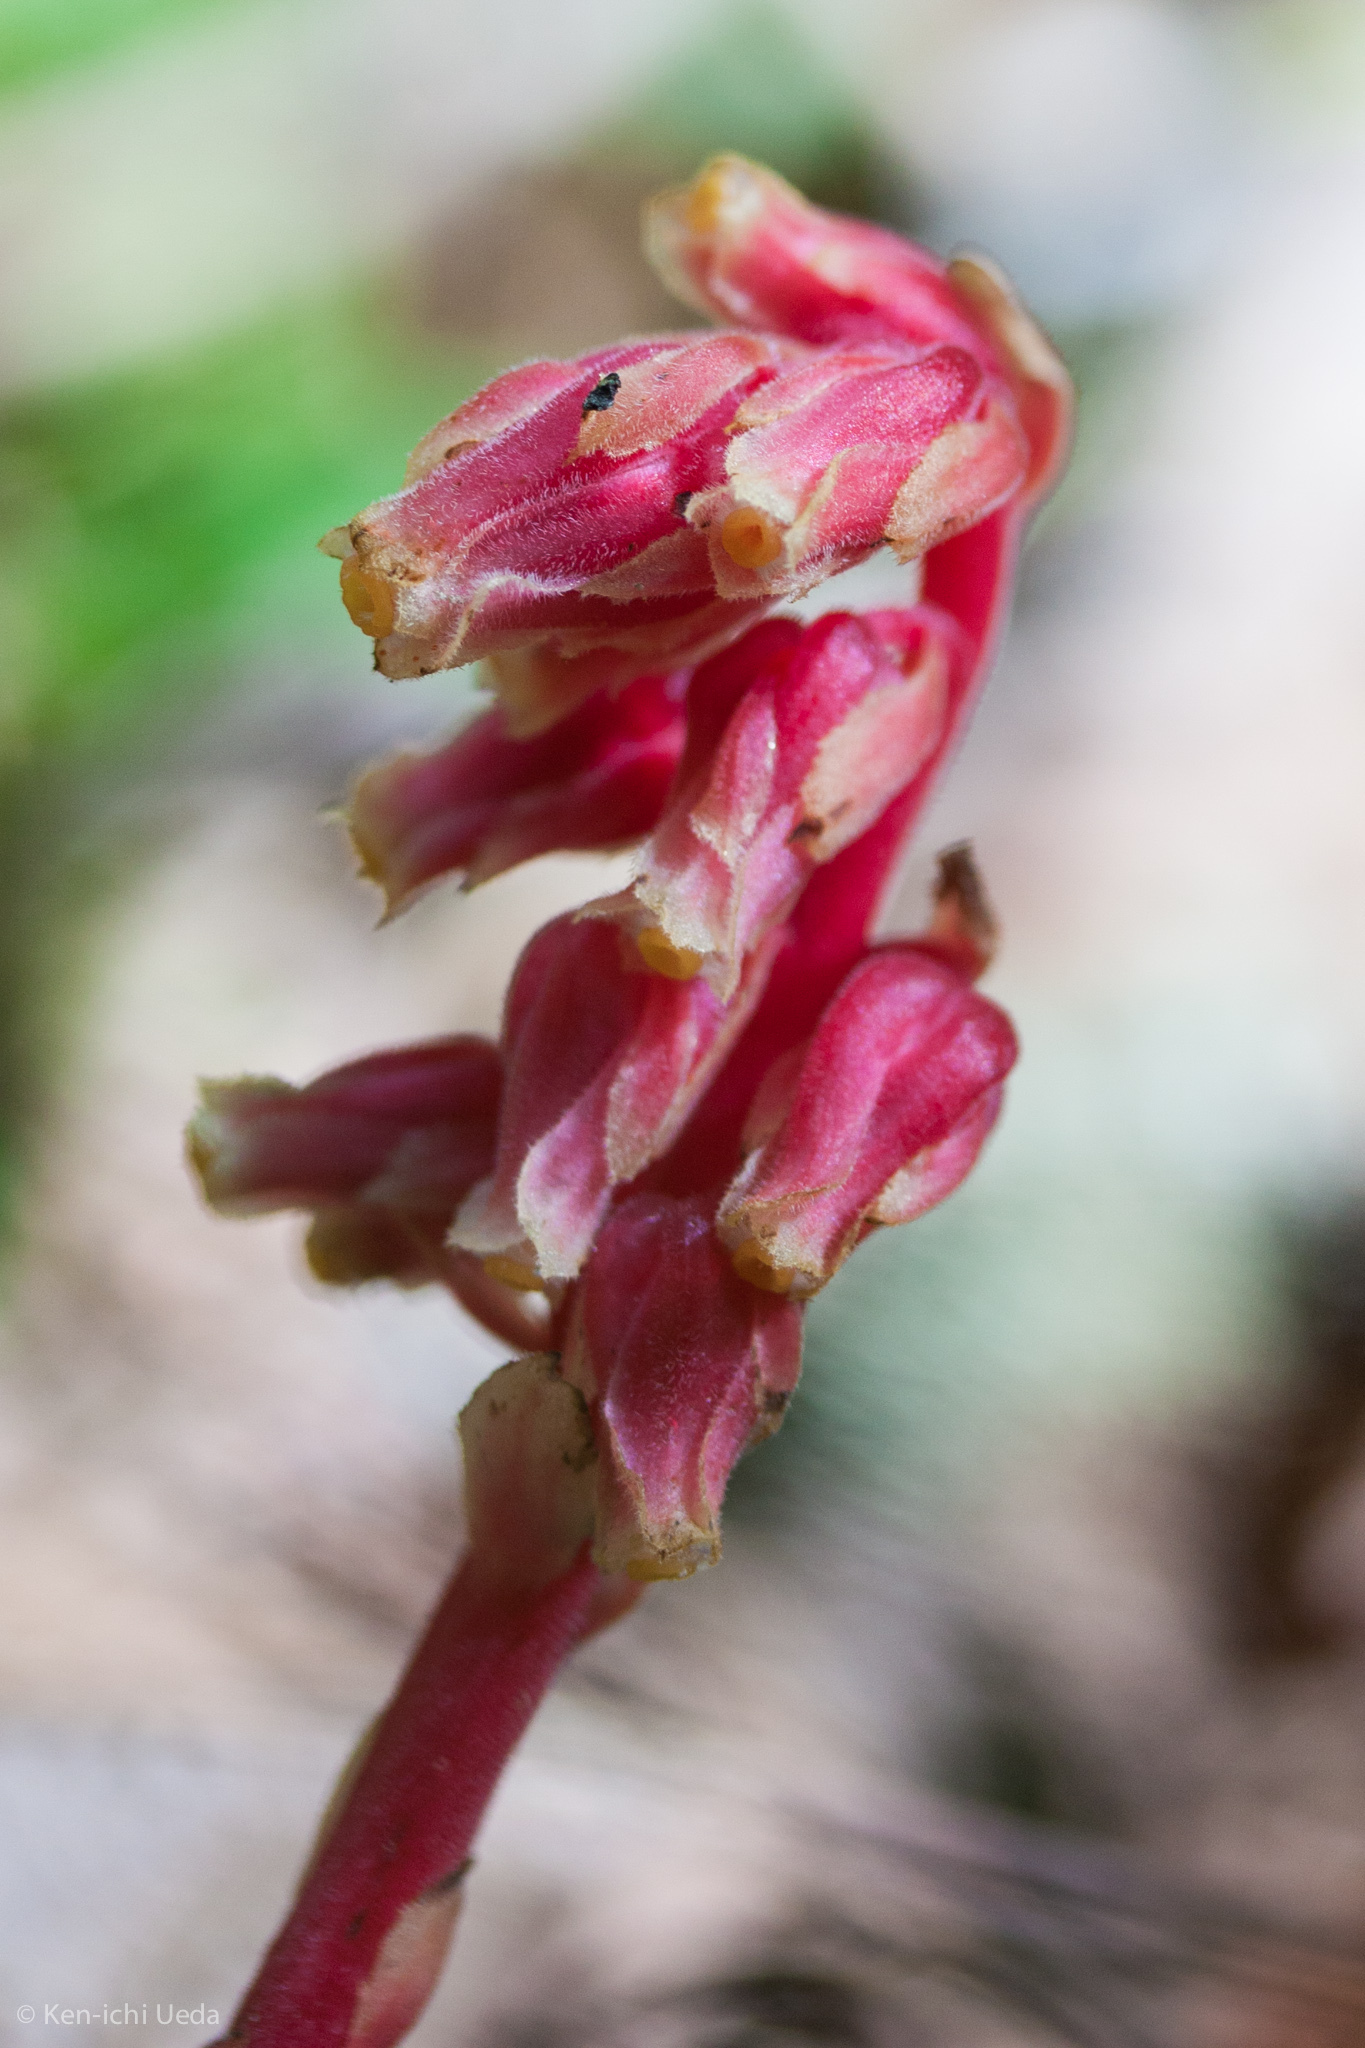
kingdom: Plantae
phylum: Tracheophyta
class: Magnoliopsida
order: Ericales
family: Ericaceae
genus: Hypopitys
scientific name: Hypopitys monotropa
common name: Yellow bird's-nest
